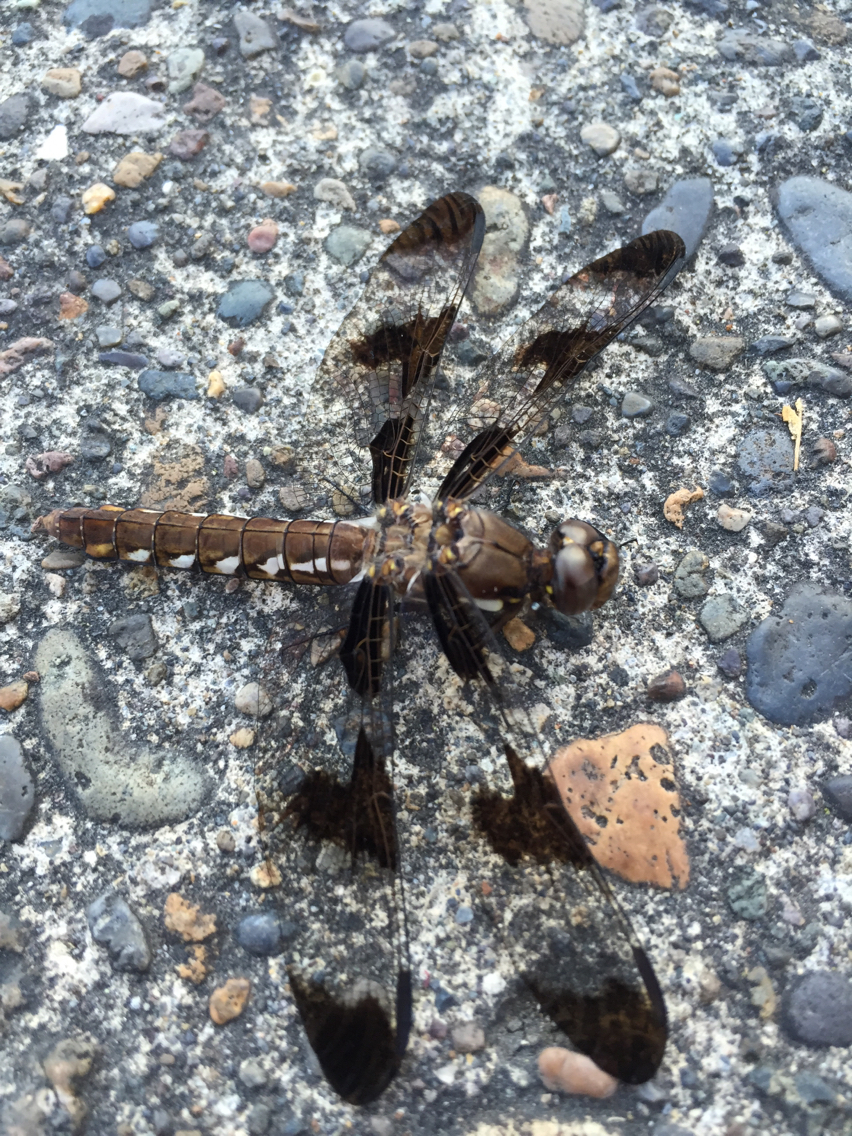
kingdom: Animalia
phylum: Arthropoda
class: Insecta
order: Odonata
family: Libellulidae
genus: Plathemis
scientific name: Plathemis lydia
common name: Common whitetail
